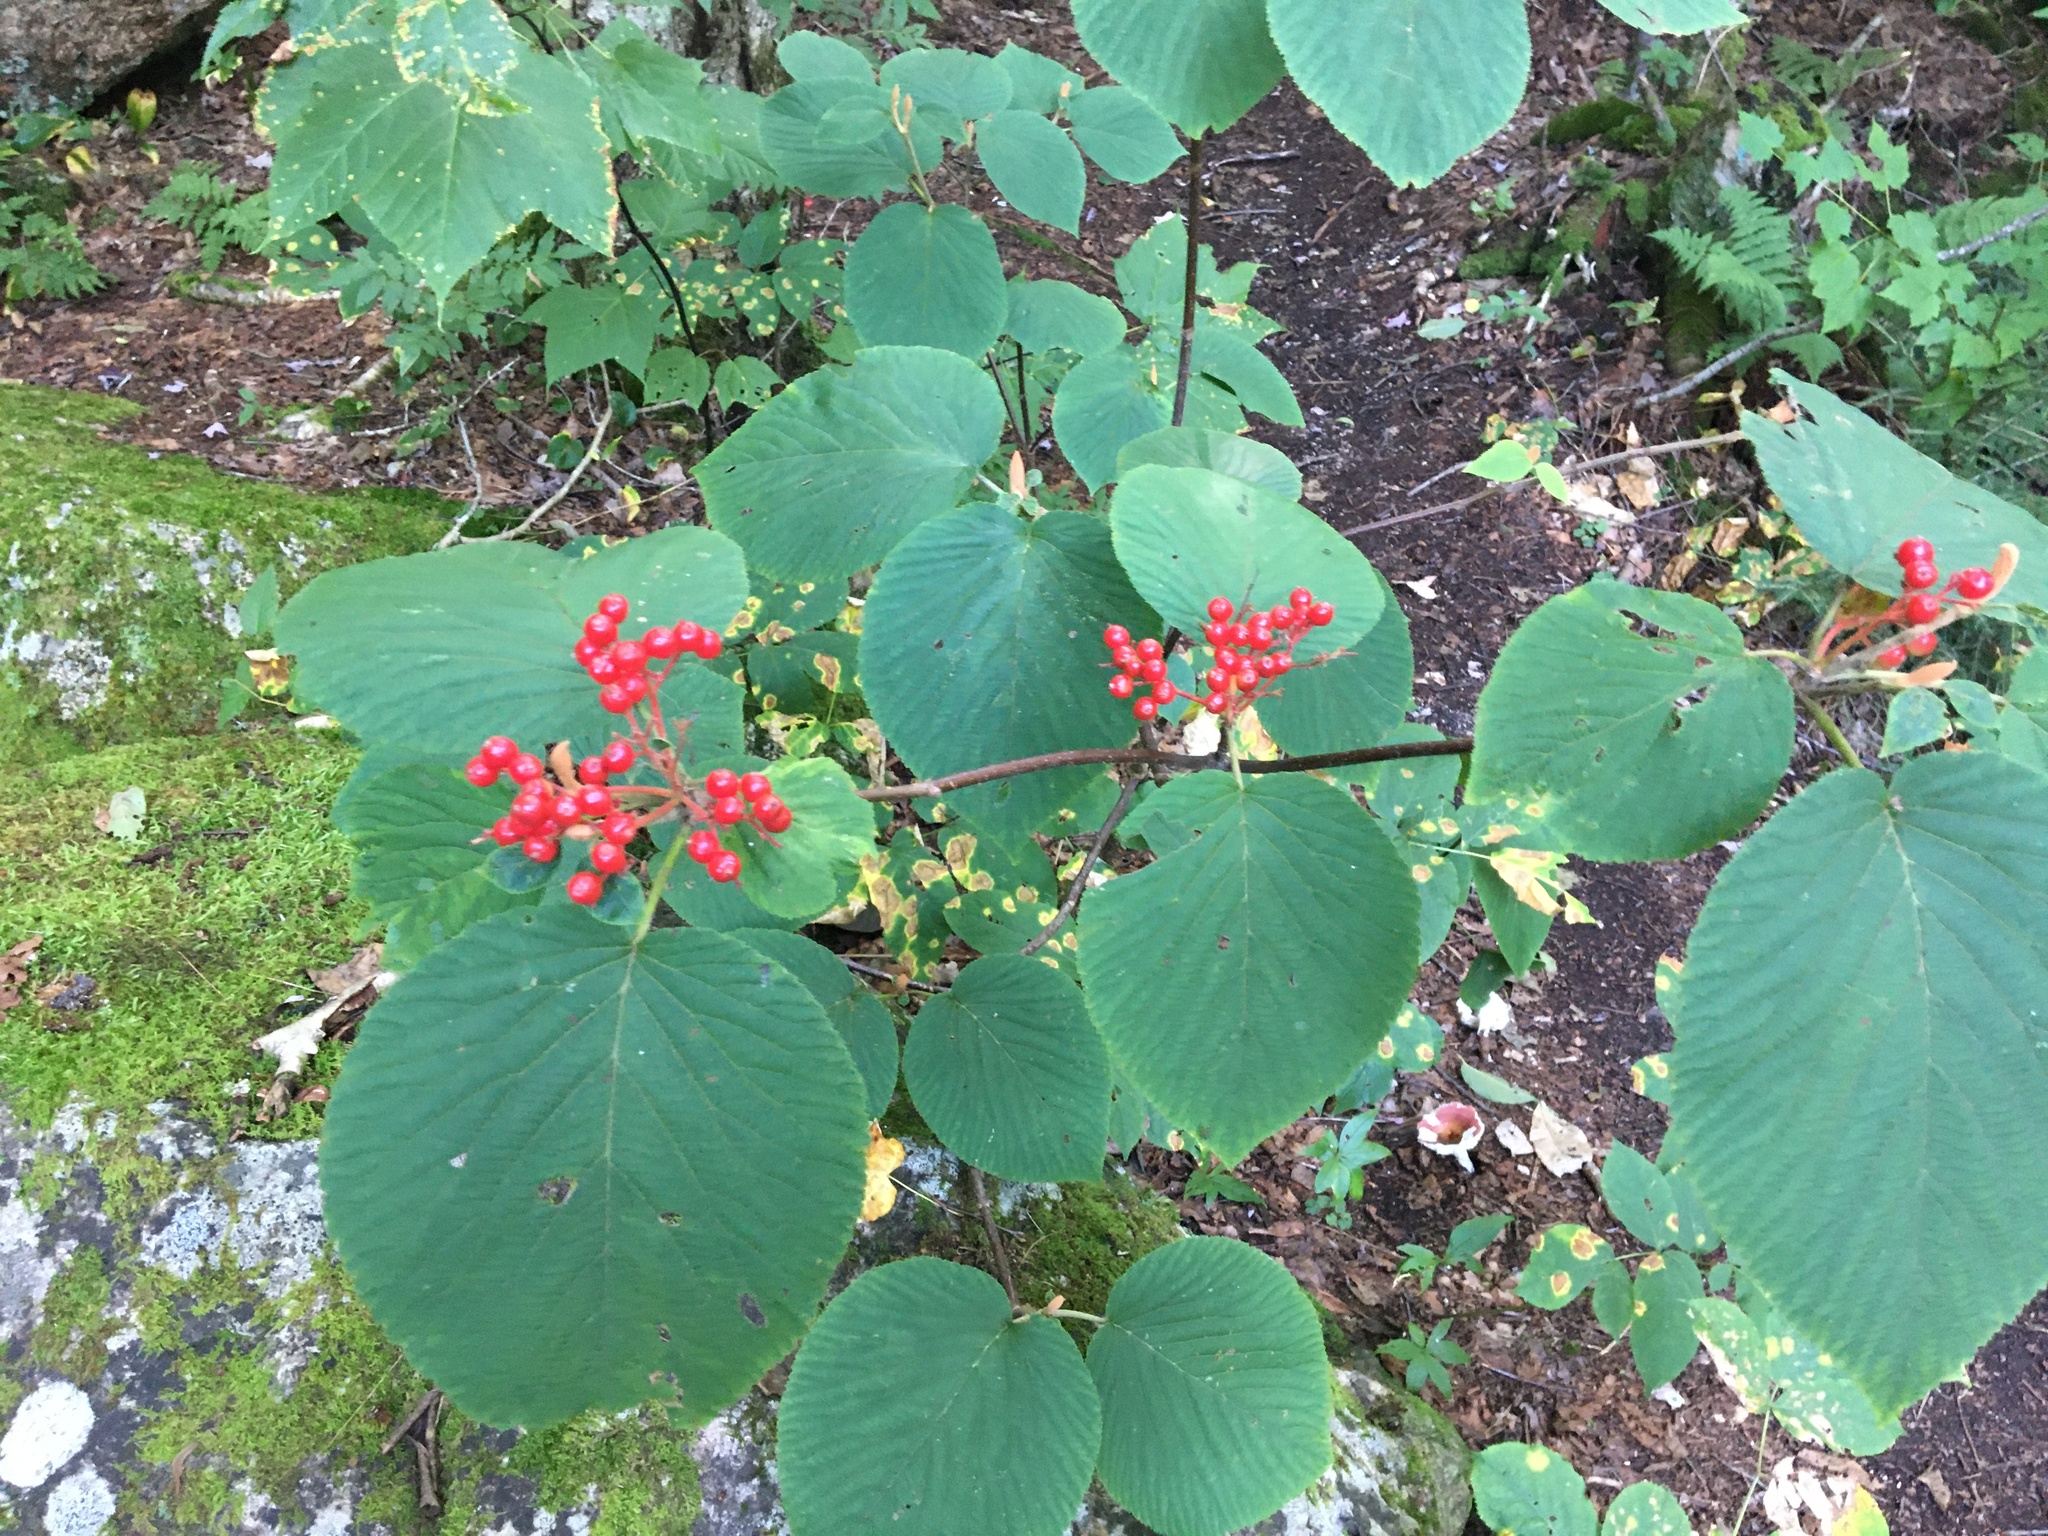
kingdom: Plantae
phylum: Tracheophyta
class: Magnoliopsida
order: Dipsacales
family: Viburnaceae
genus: Viburnum
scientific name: Viburnum lantanoides
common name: Hobblebush
